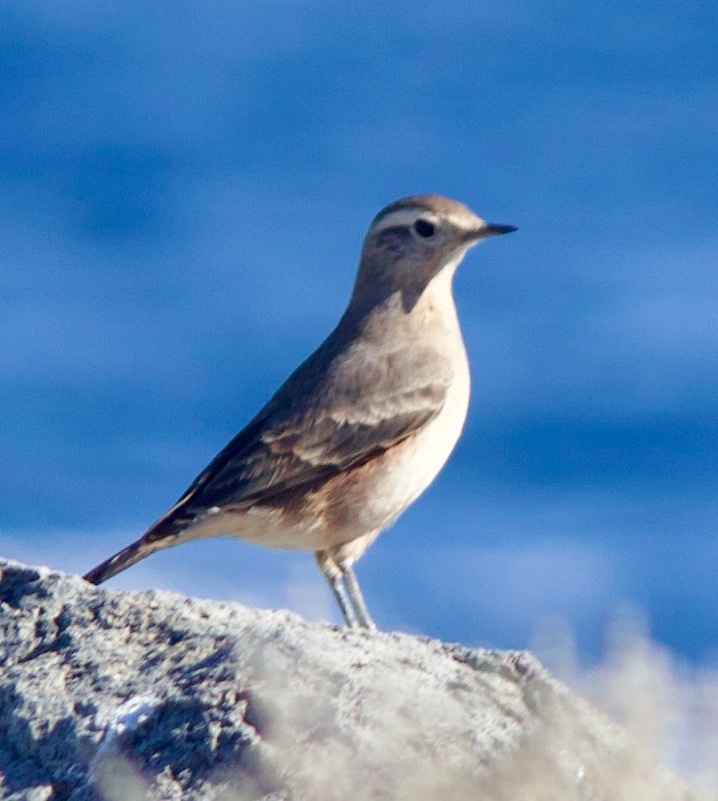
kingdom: Animalia
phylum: Chordata
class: Aves
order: Passeriformes
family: Furnariidae
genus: Geositta
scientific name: Geositta rufipennis
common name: Rufous-banded miner
